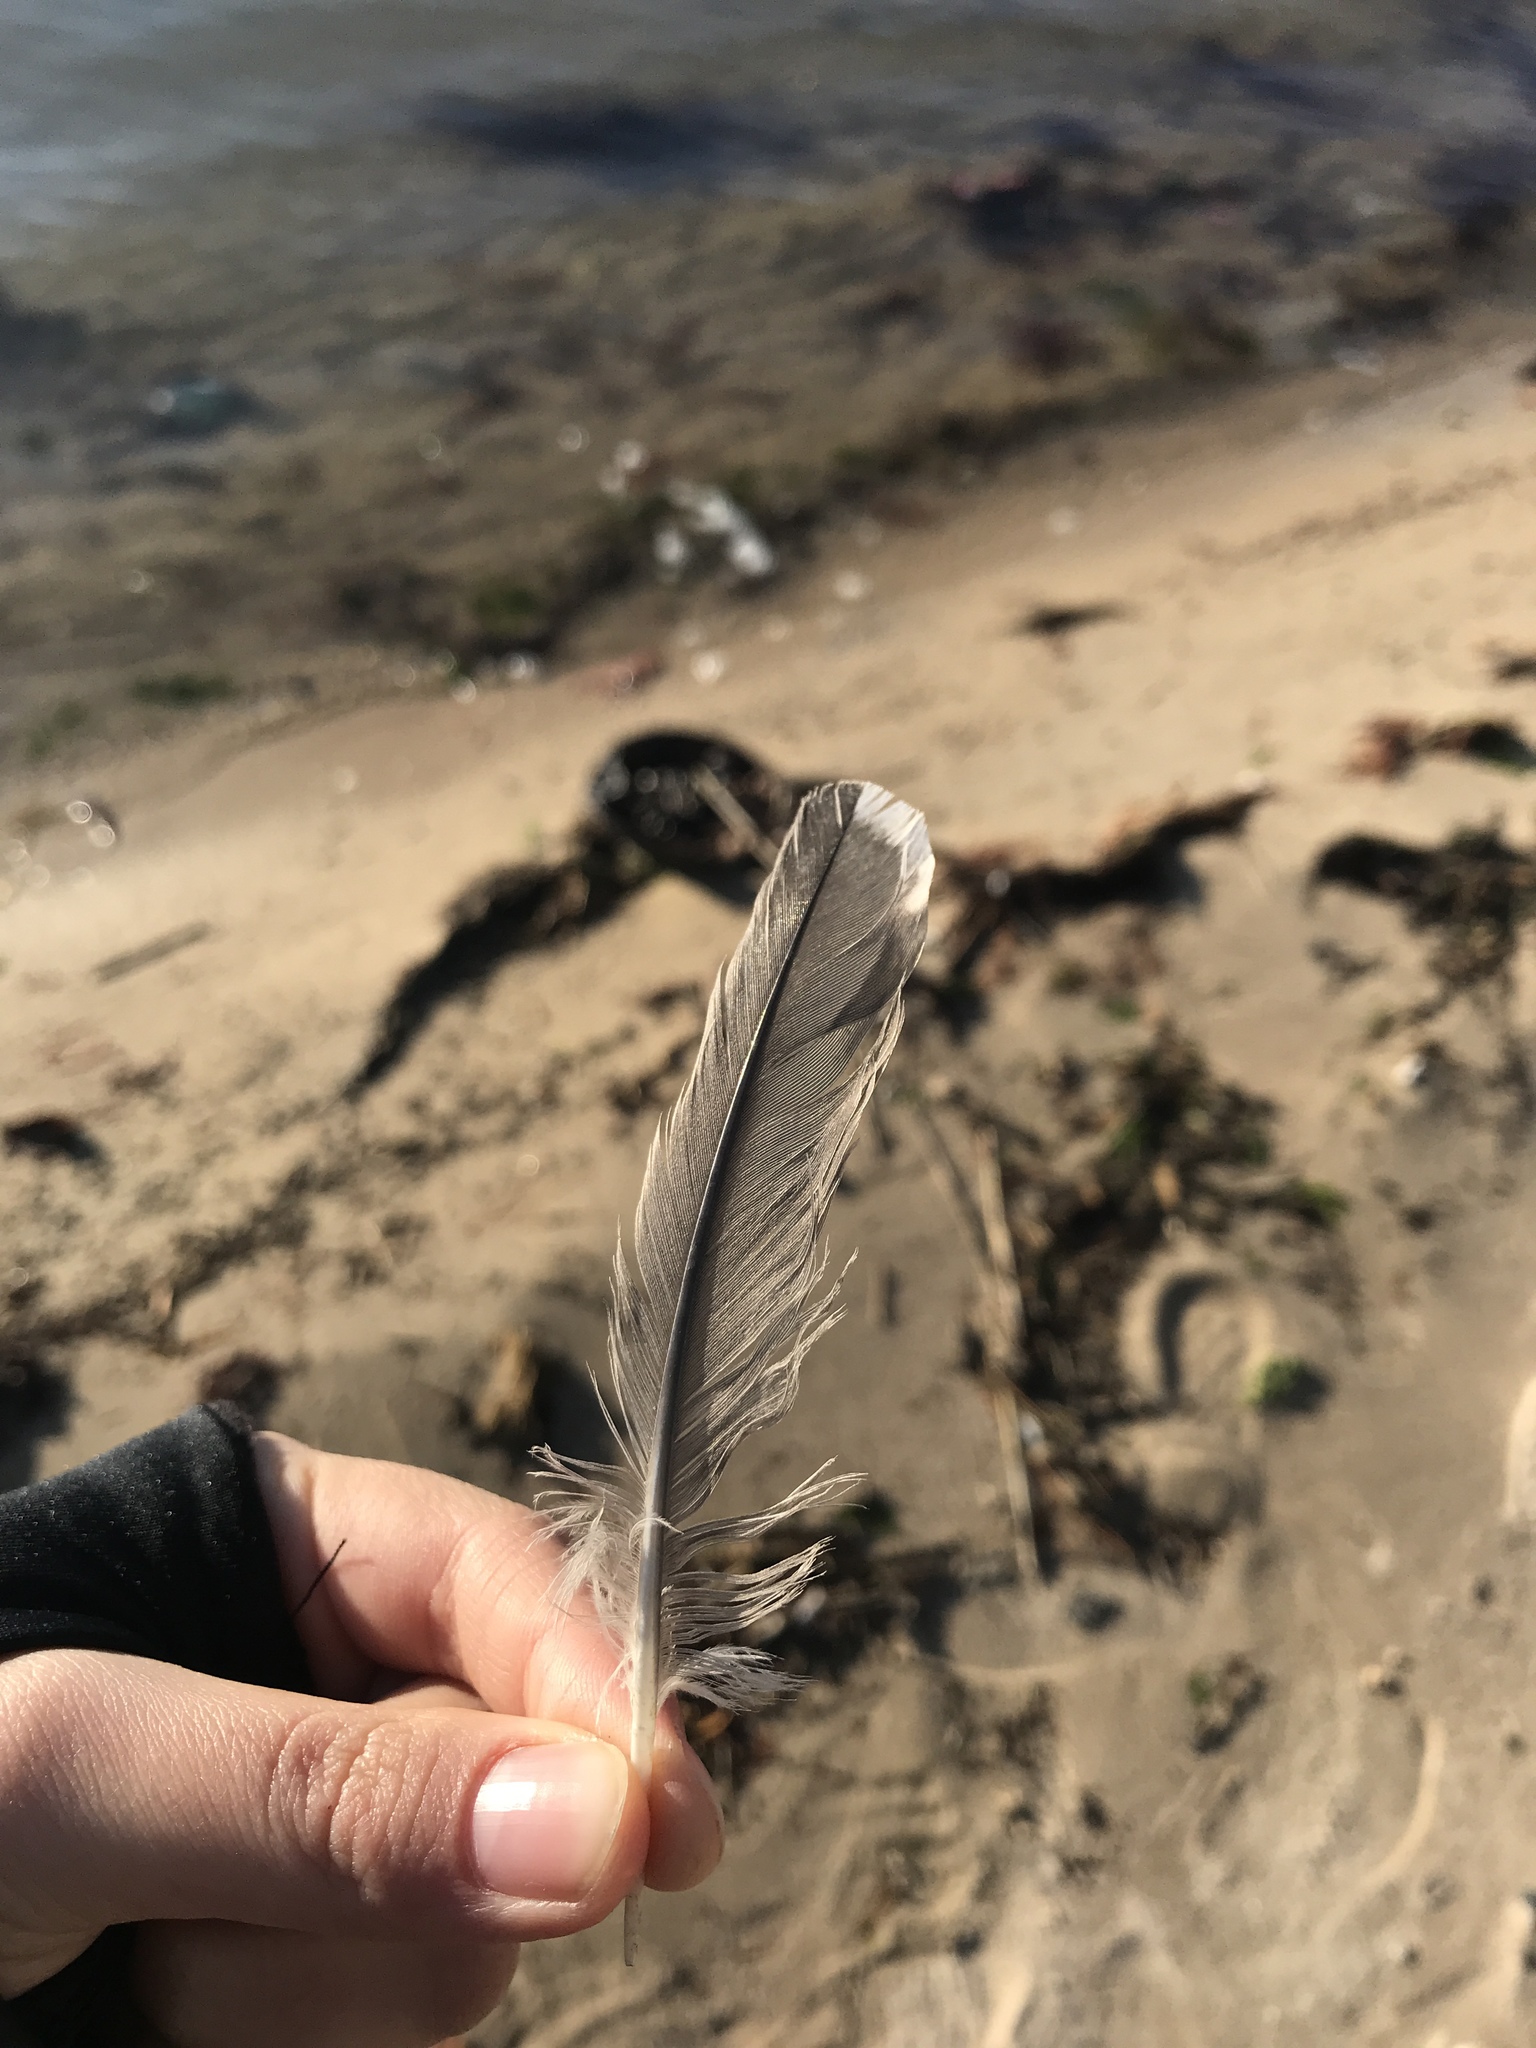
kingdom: Animalia
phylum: Chordata
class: Aves
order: Gruiformes
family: Rallidae
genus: Fulica
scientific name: Fulica americana
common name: American coot
